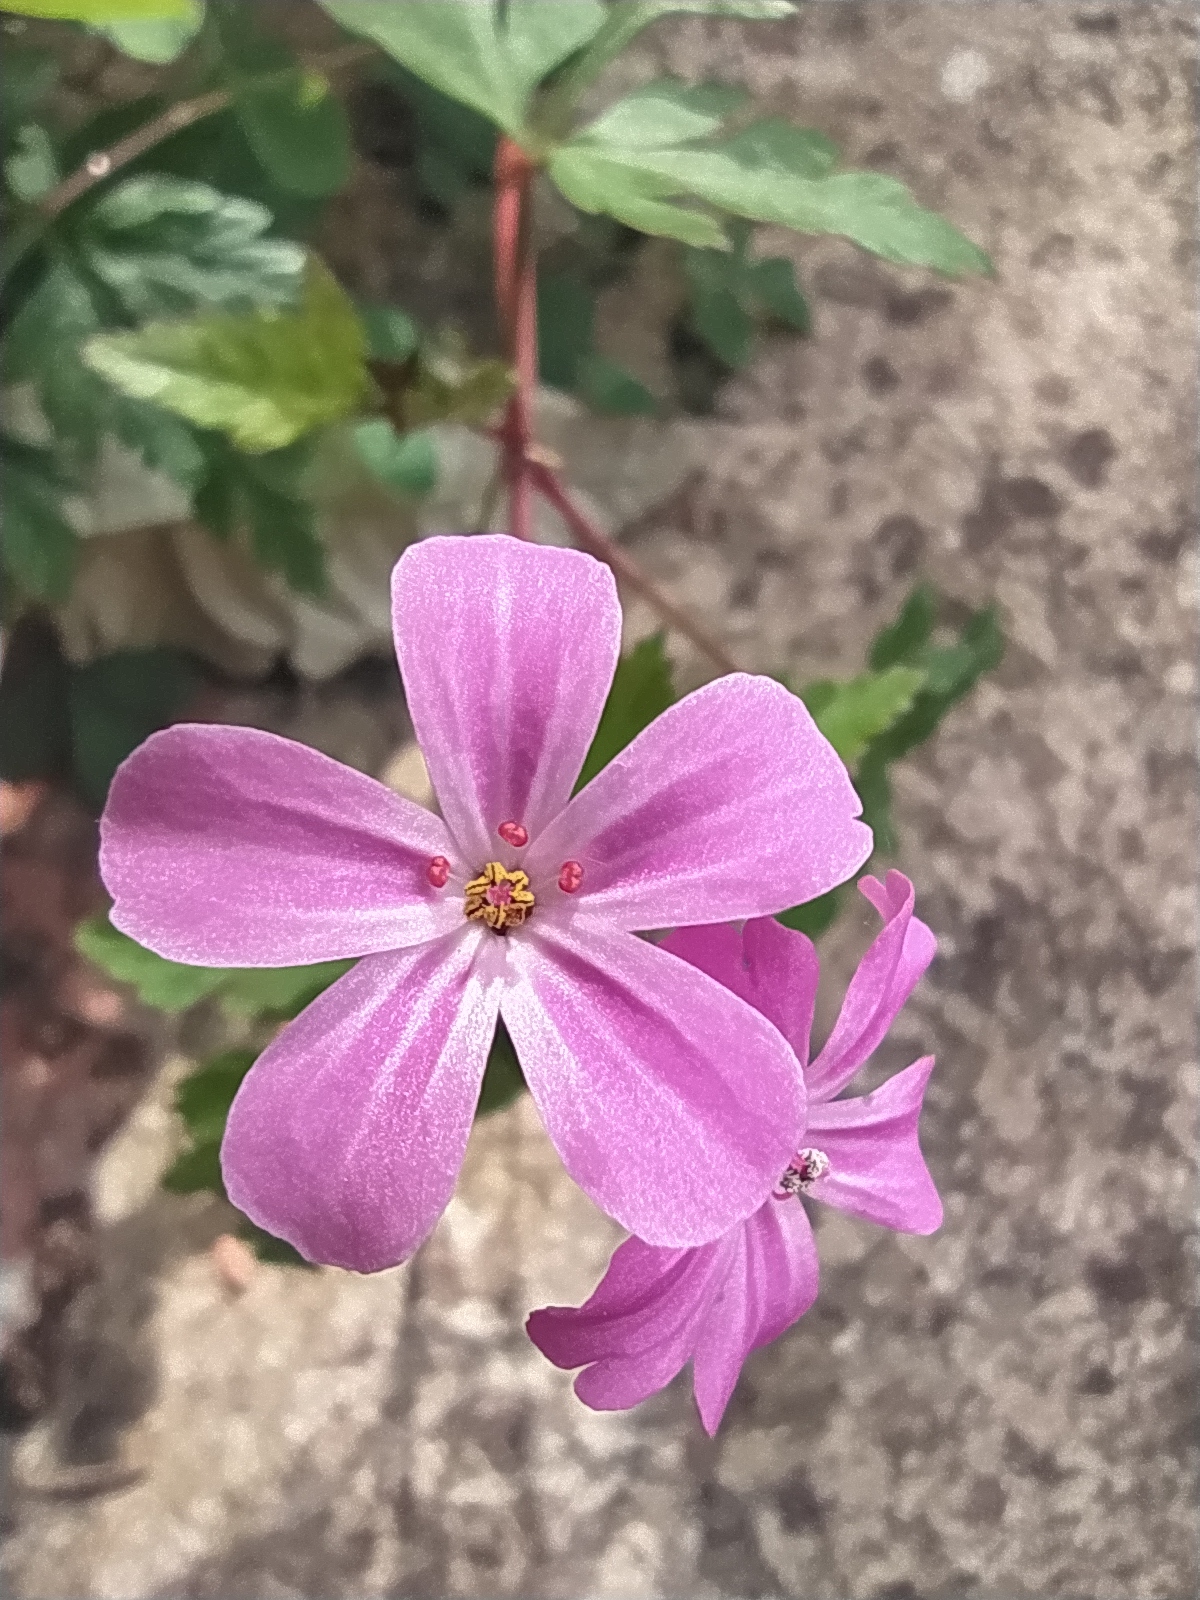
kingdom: Plantae
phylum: Tracheophyta
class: Magnoliopsida
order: Geraniales
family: Geraniaceae
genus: Geranium
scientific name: Geranium robertianum
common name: Herb-robert
